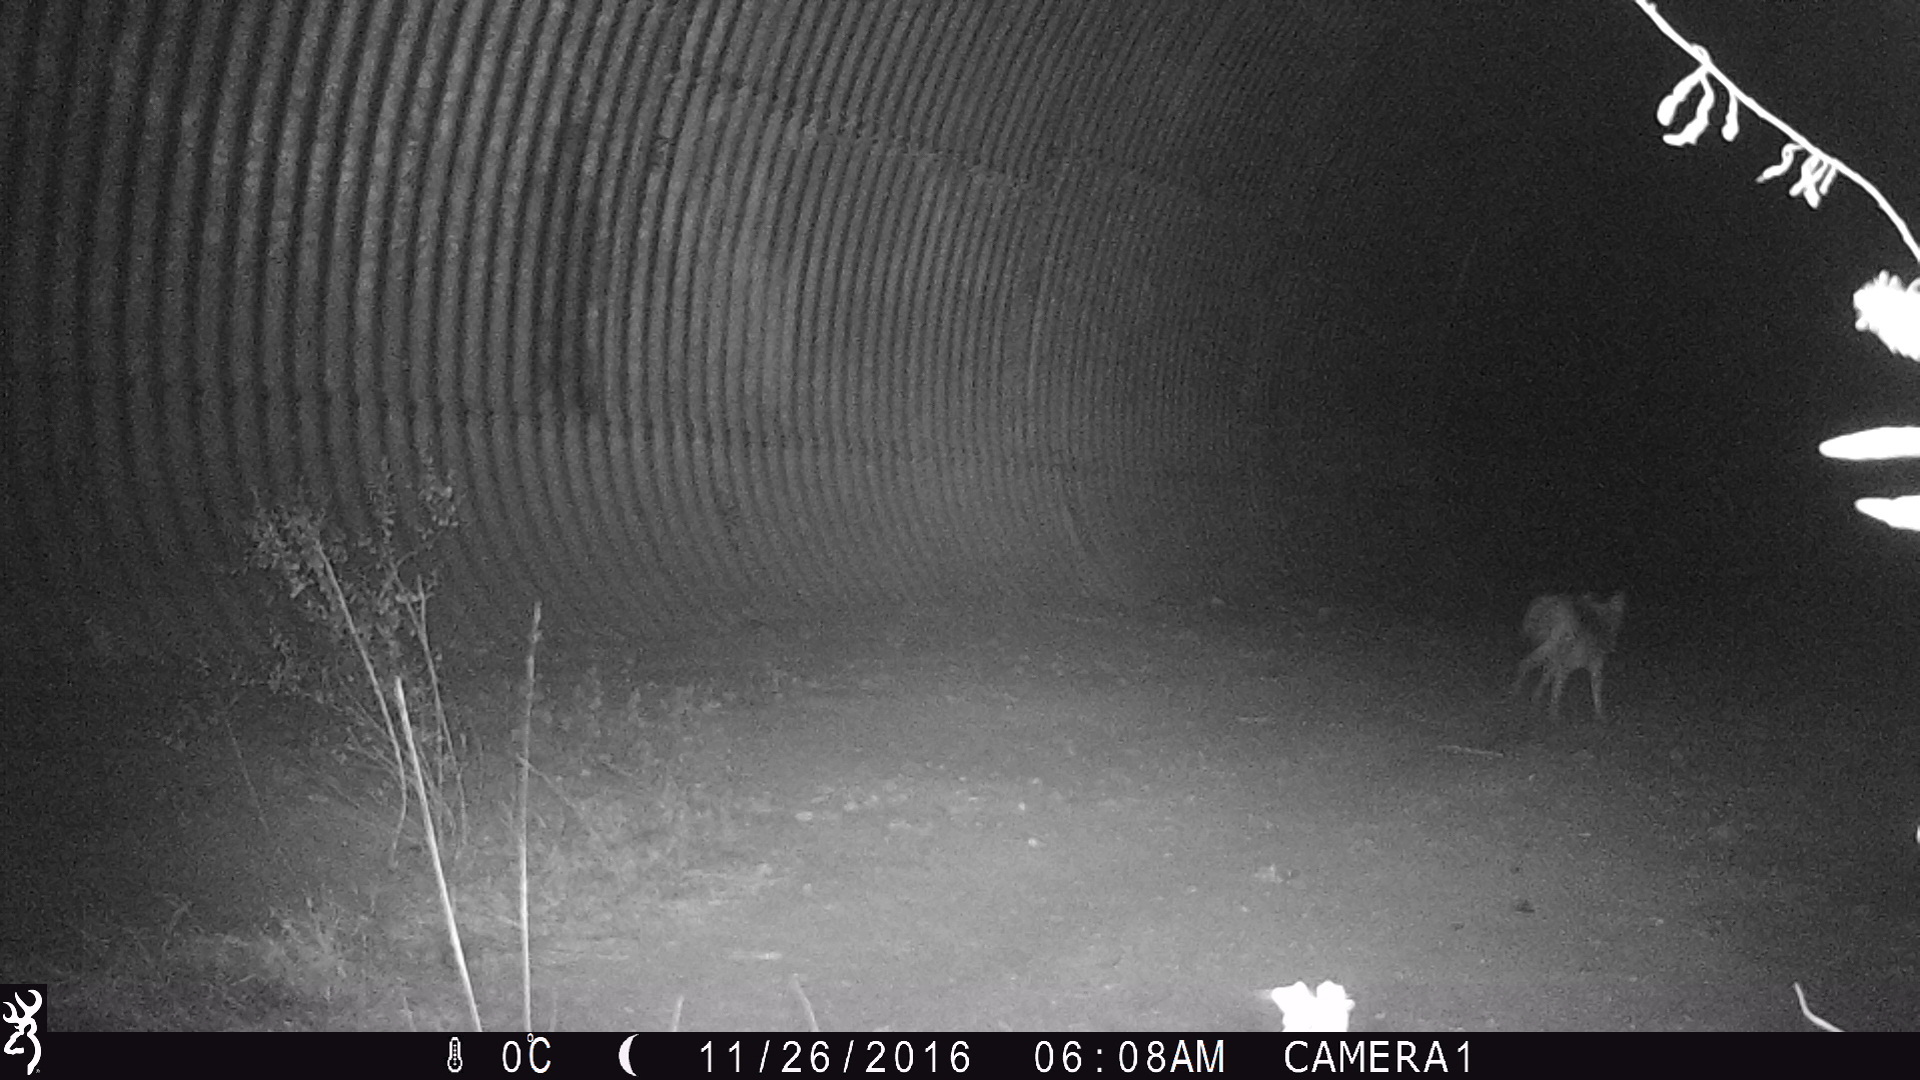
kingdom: Animalia
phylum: Chordata
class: Mammalia
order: Carnivora
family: Canidae
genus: Canis
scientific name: Canis latrans
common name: Coyote
